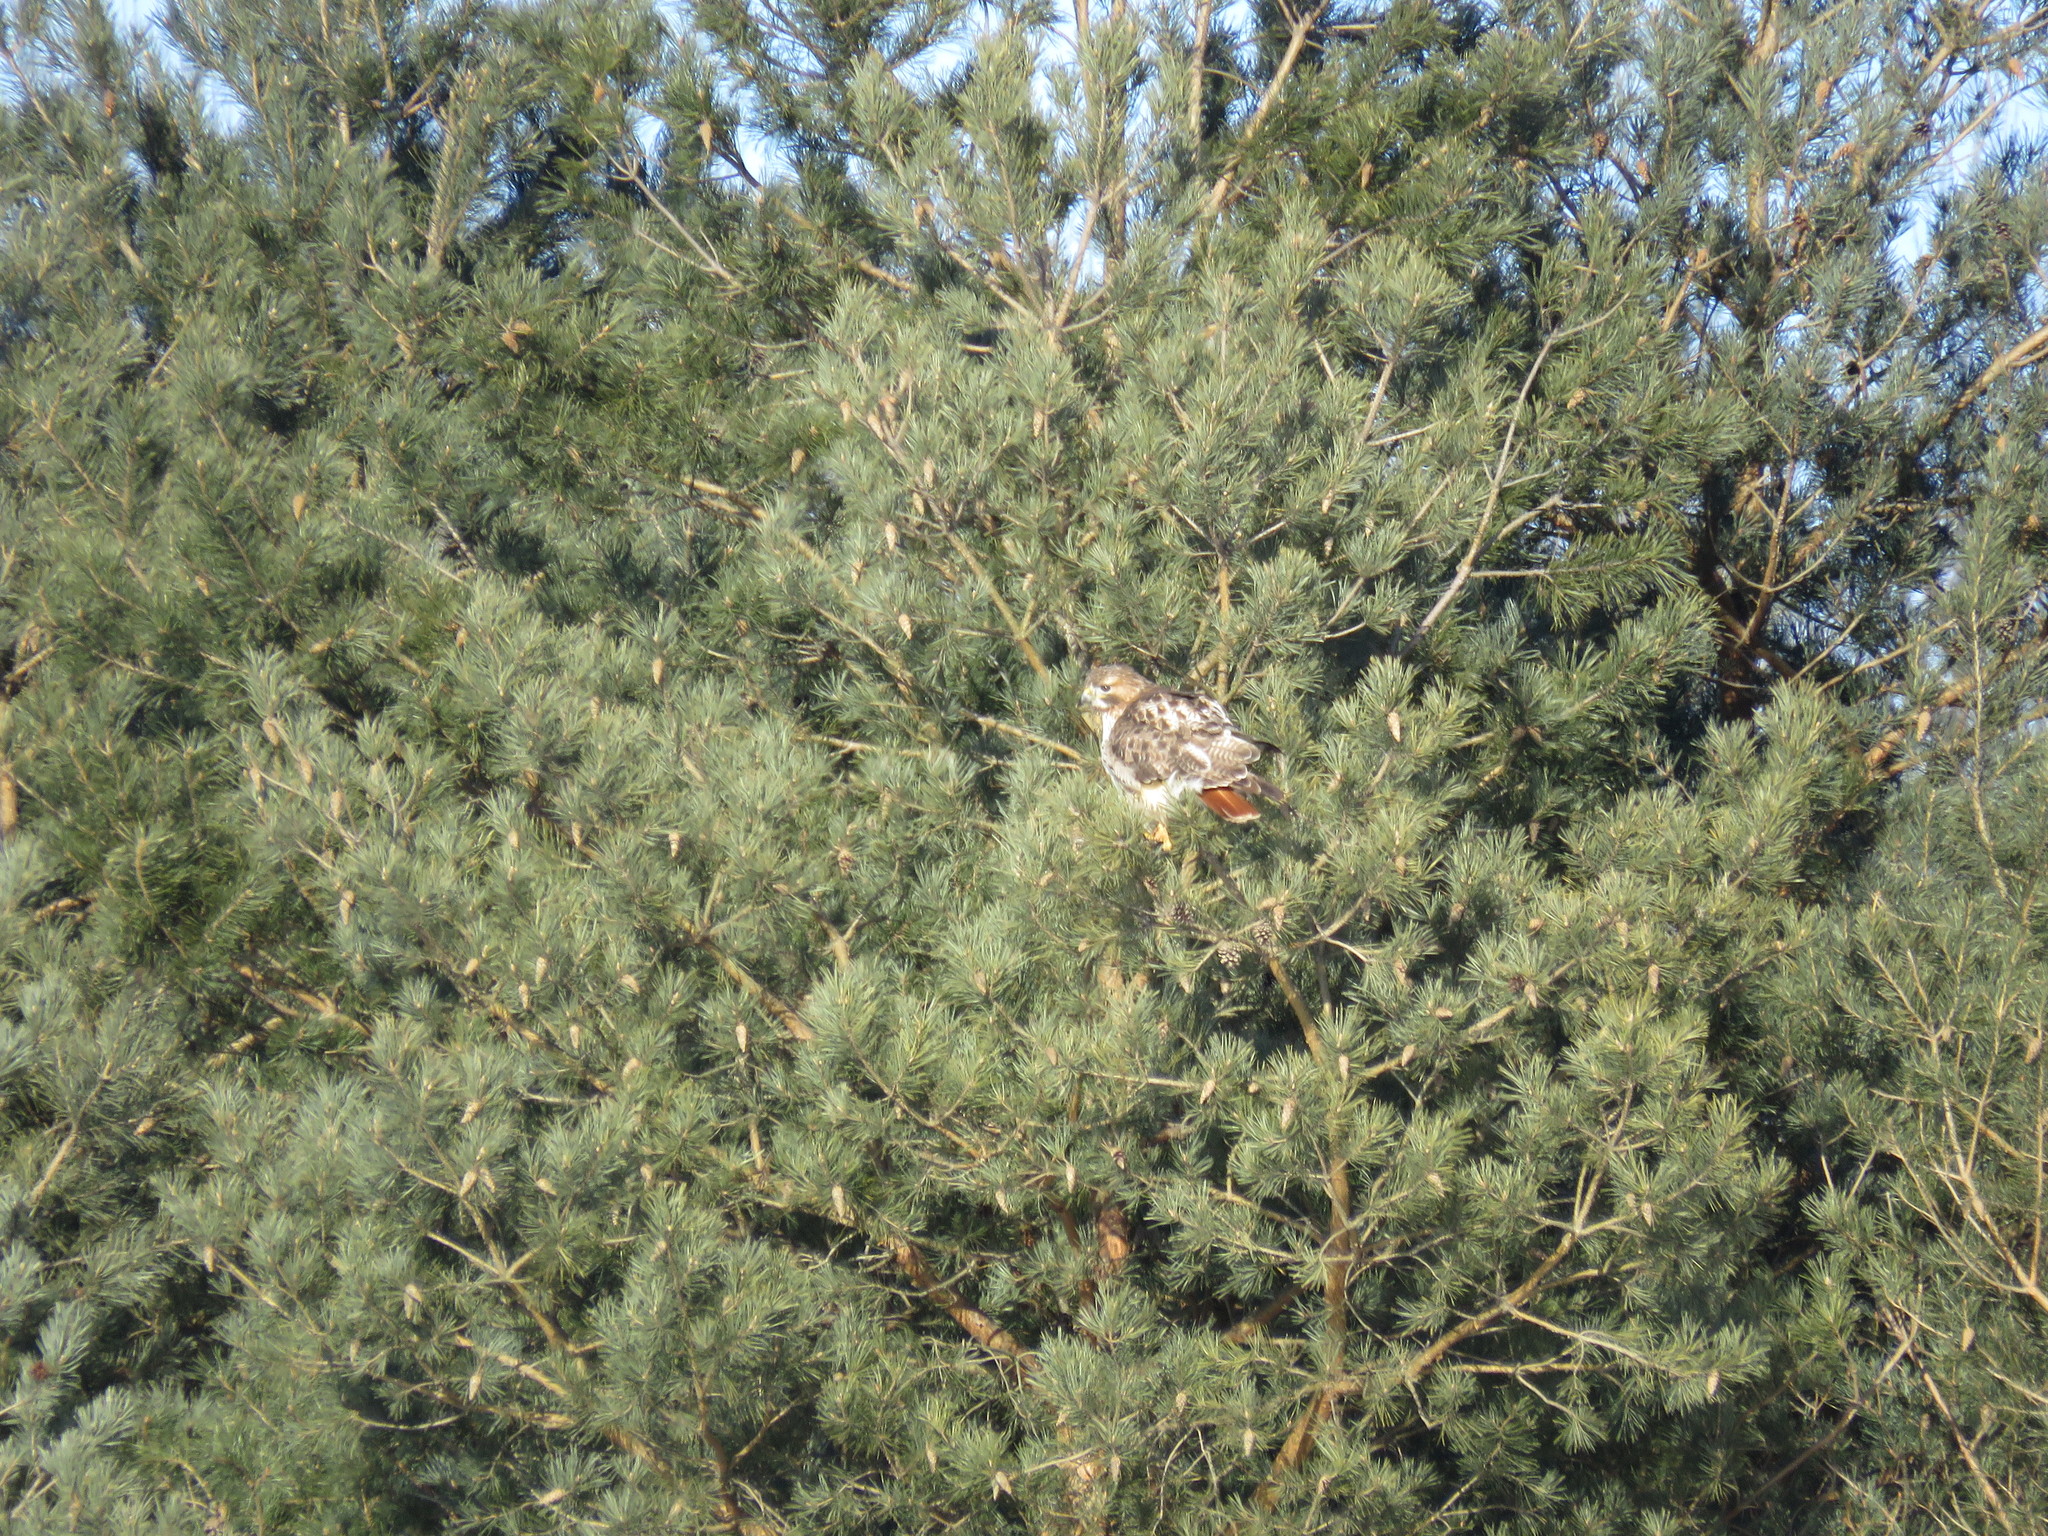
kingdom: Animalia
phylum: Chordata
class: Aves
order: Accipitriformes
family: Accipitridae
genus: Buteo
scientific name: Buteo jamaicensis
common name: Red-tailed hawk
